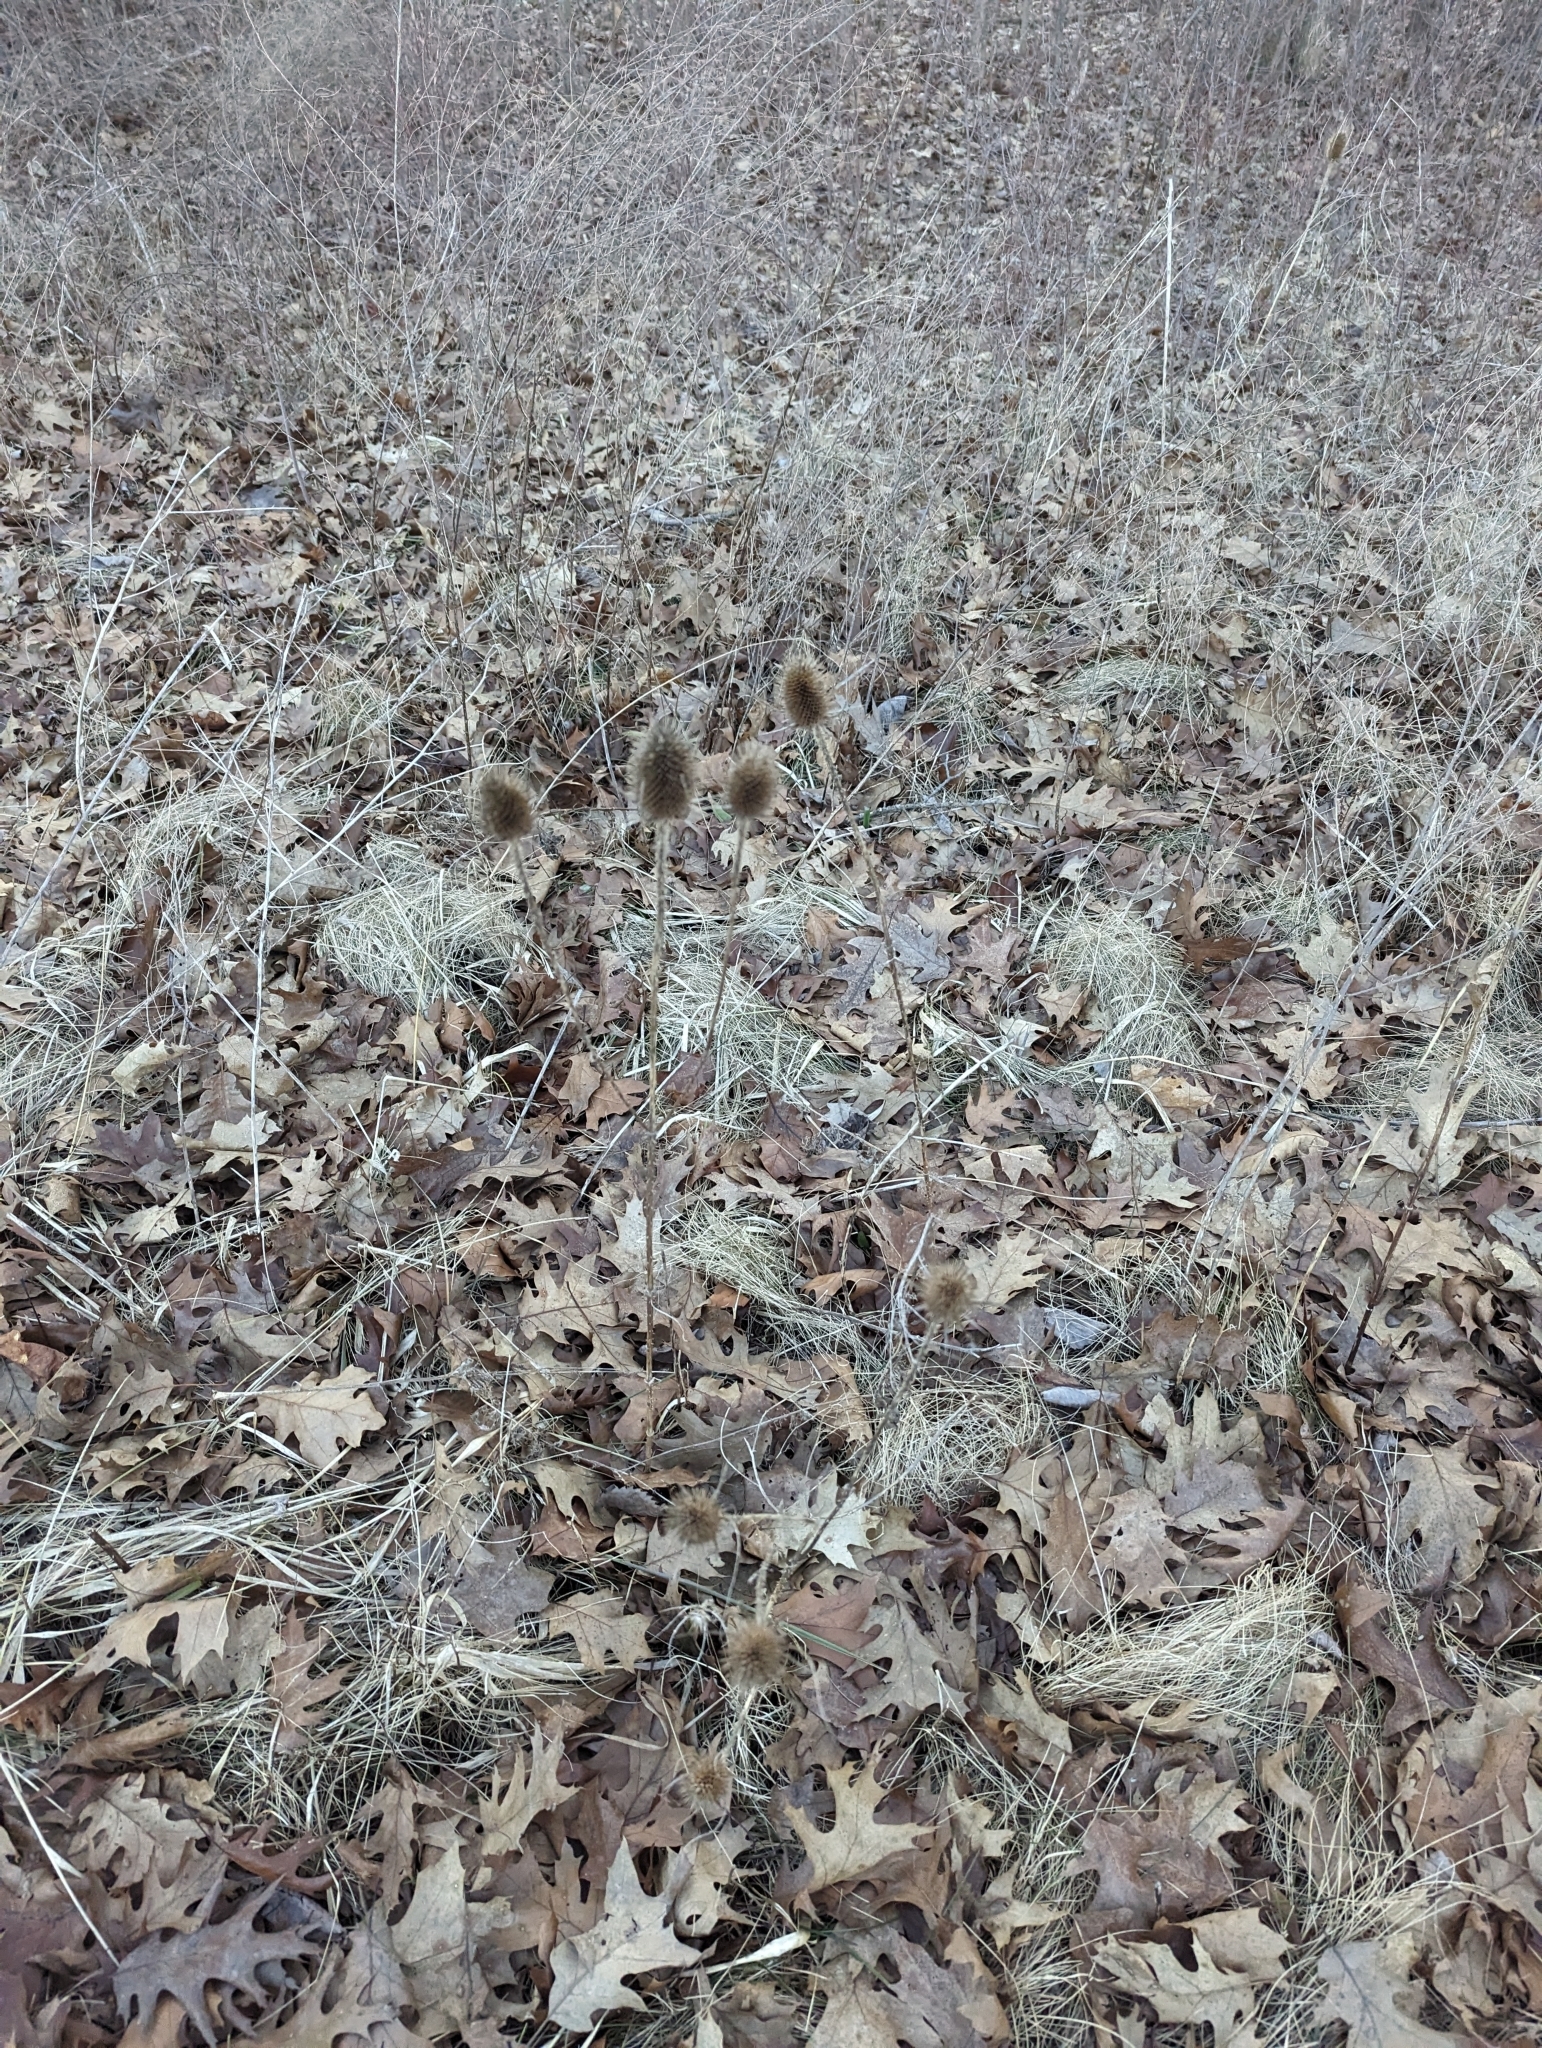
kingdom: Plantae
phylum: Tracheophyta
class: Magnoliopsida
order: Dipsacales
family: Caprifoliaceae
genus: Dipsacus
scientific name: Dipsacus fullonum
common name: Teasel
